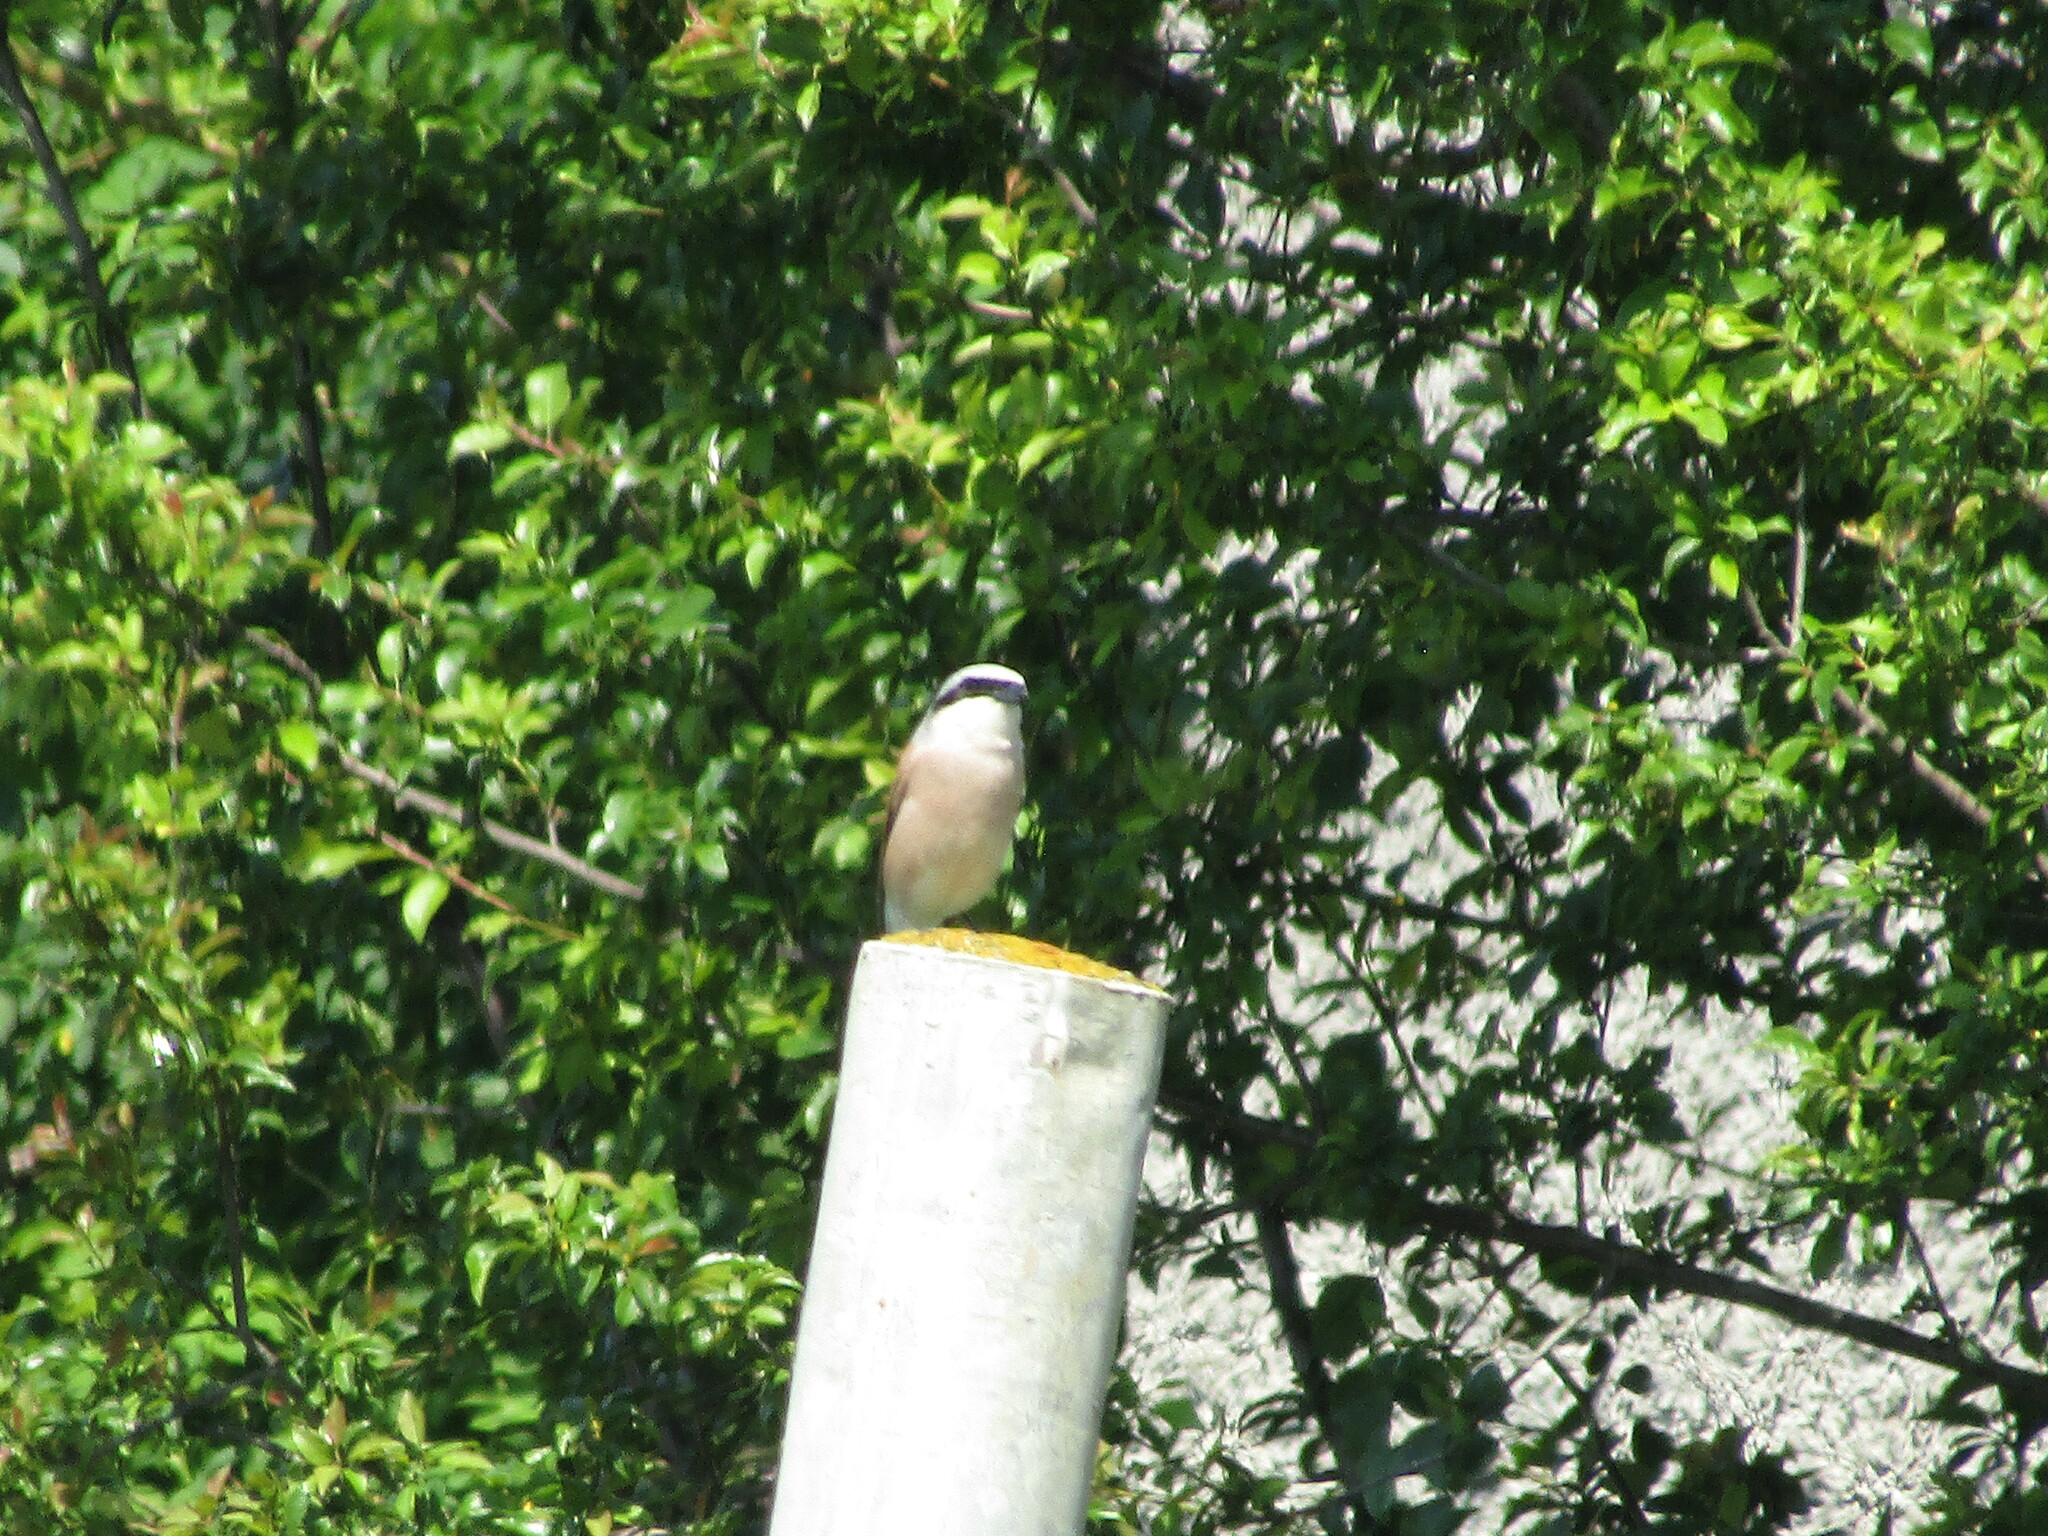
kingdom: Animalia
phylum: Chordata
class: Aves
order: Passeriformes
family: Laniidae
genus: Lanius
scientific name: Lanius collurio
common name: Red-backed shrike
